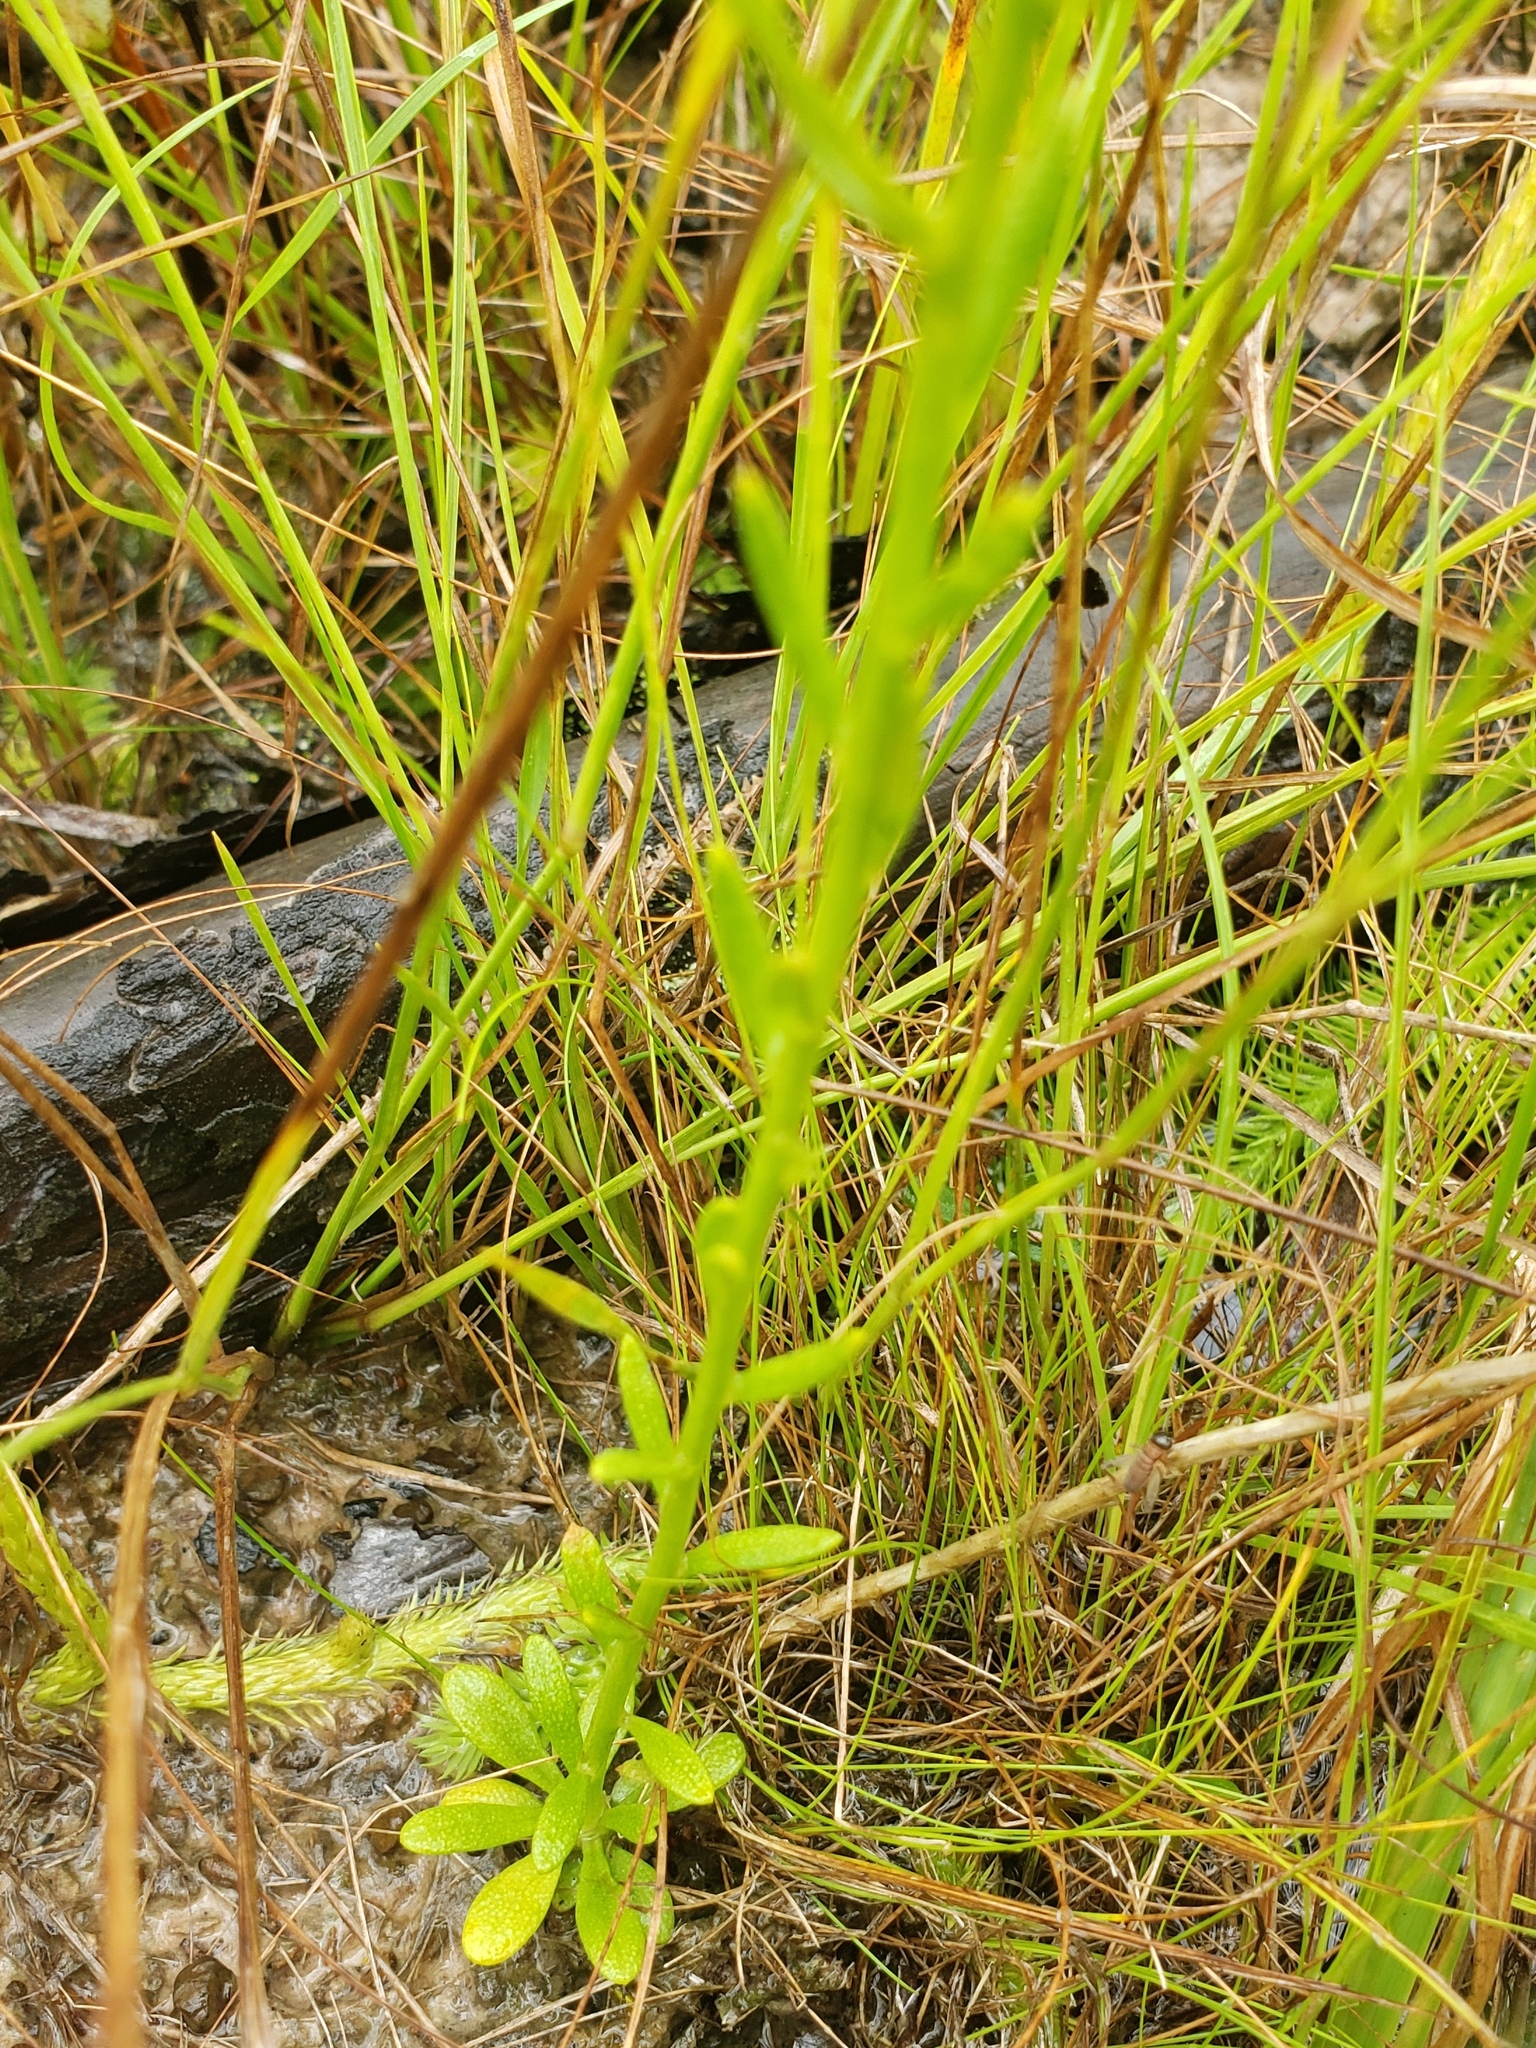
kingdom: Plantae
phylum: Tracheophyta
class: Magnoliopsida
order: Fabales
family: Polygalaceae
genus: Polygala
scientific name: Polygala ramosa
